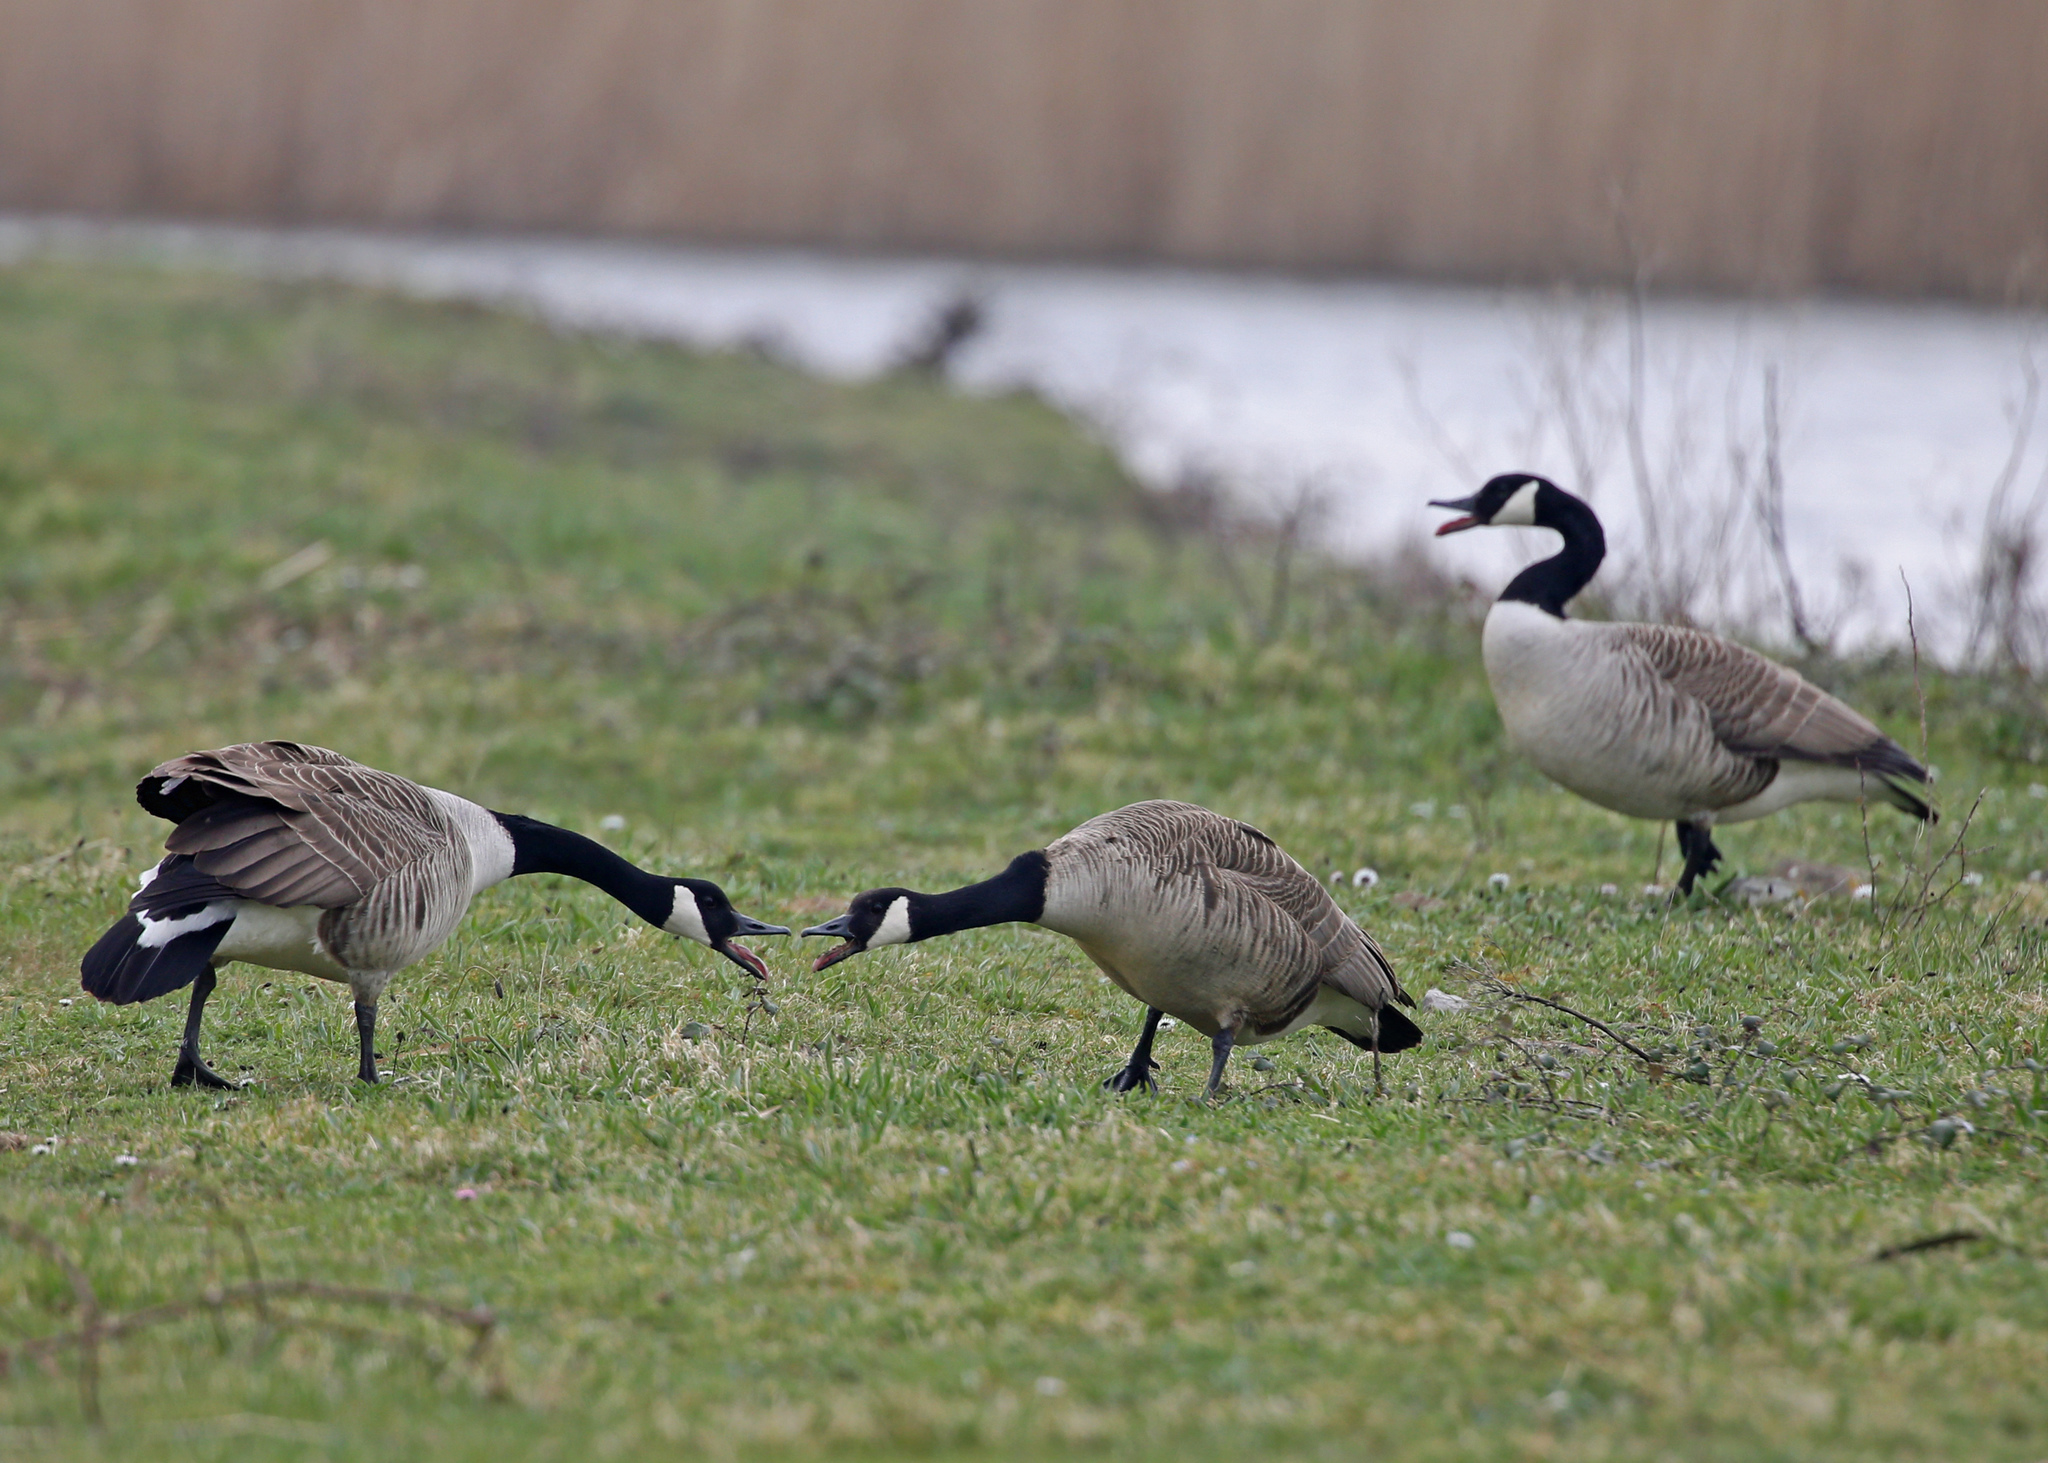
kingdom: Animalia
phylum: Chordata
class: Aves
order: Anseriformes
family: Anatidae
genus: Branta
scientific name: Branta canadensis
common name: Canada goose
